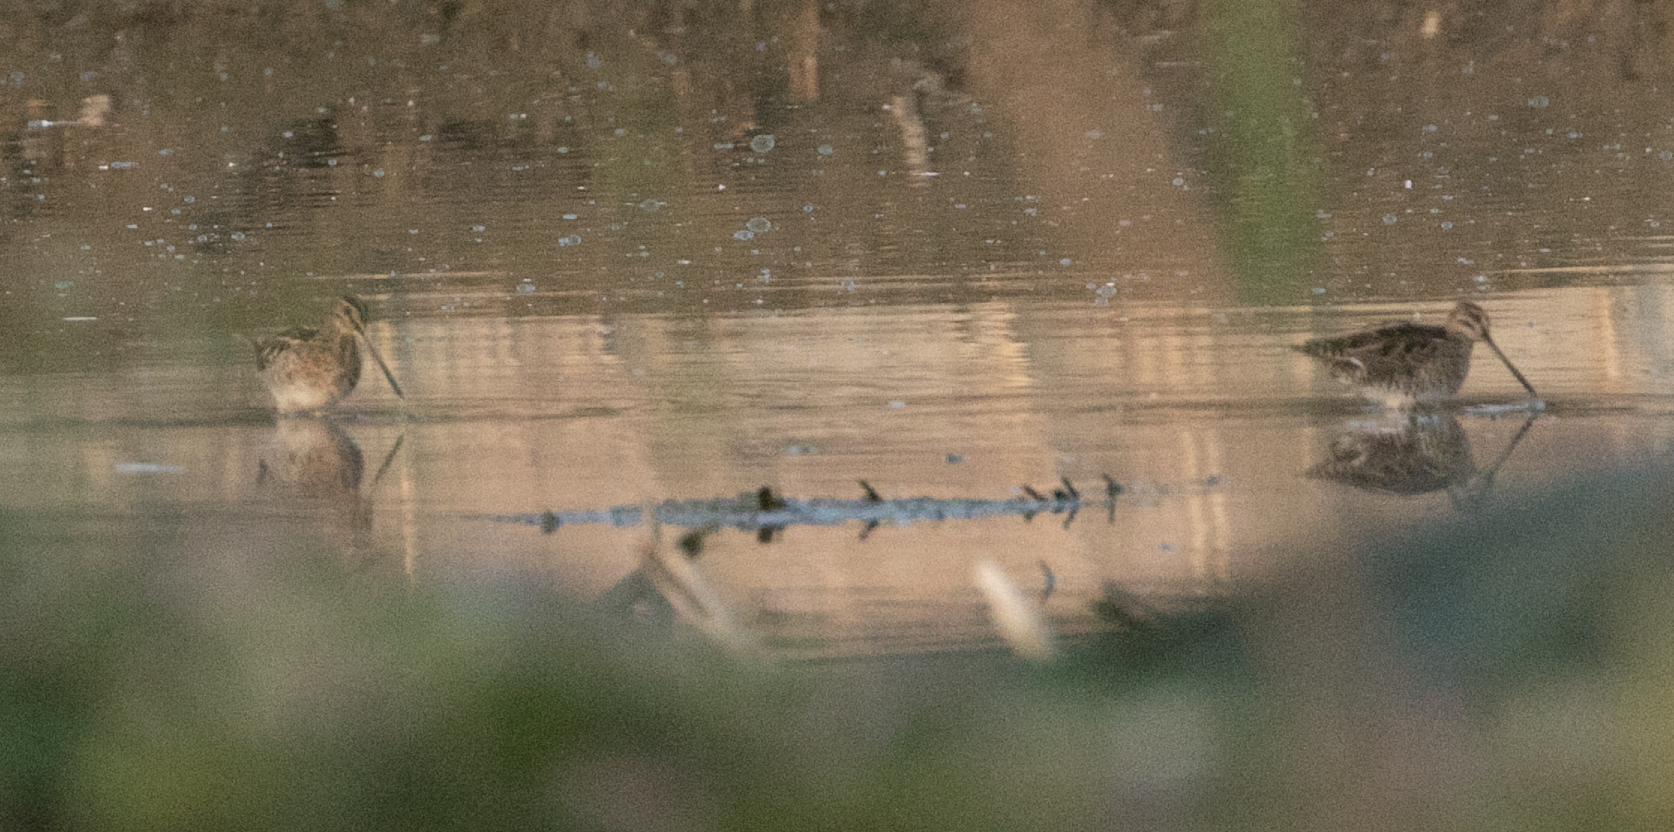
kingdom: Animalia
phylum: Chordata
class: Aves
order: Charadriiformes
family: Scolopacidae
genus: Gallinago
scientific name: Gallinago gallinago
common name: Common snipe
